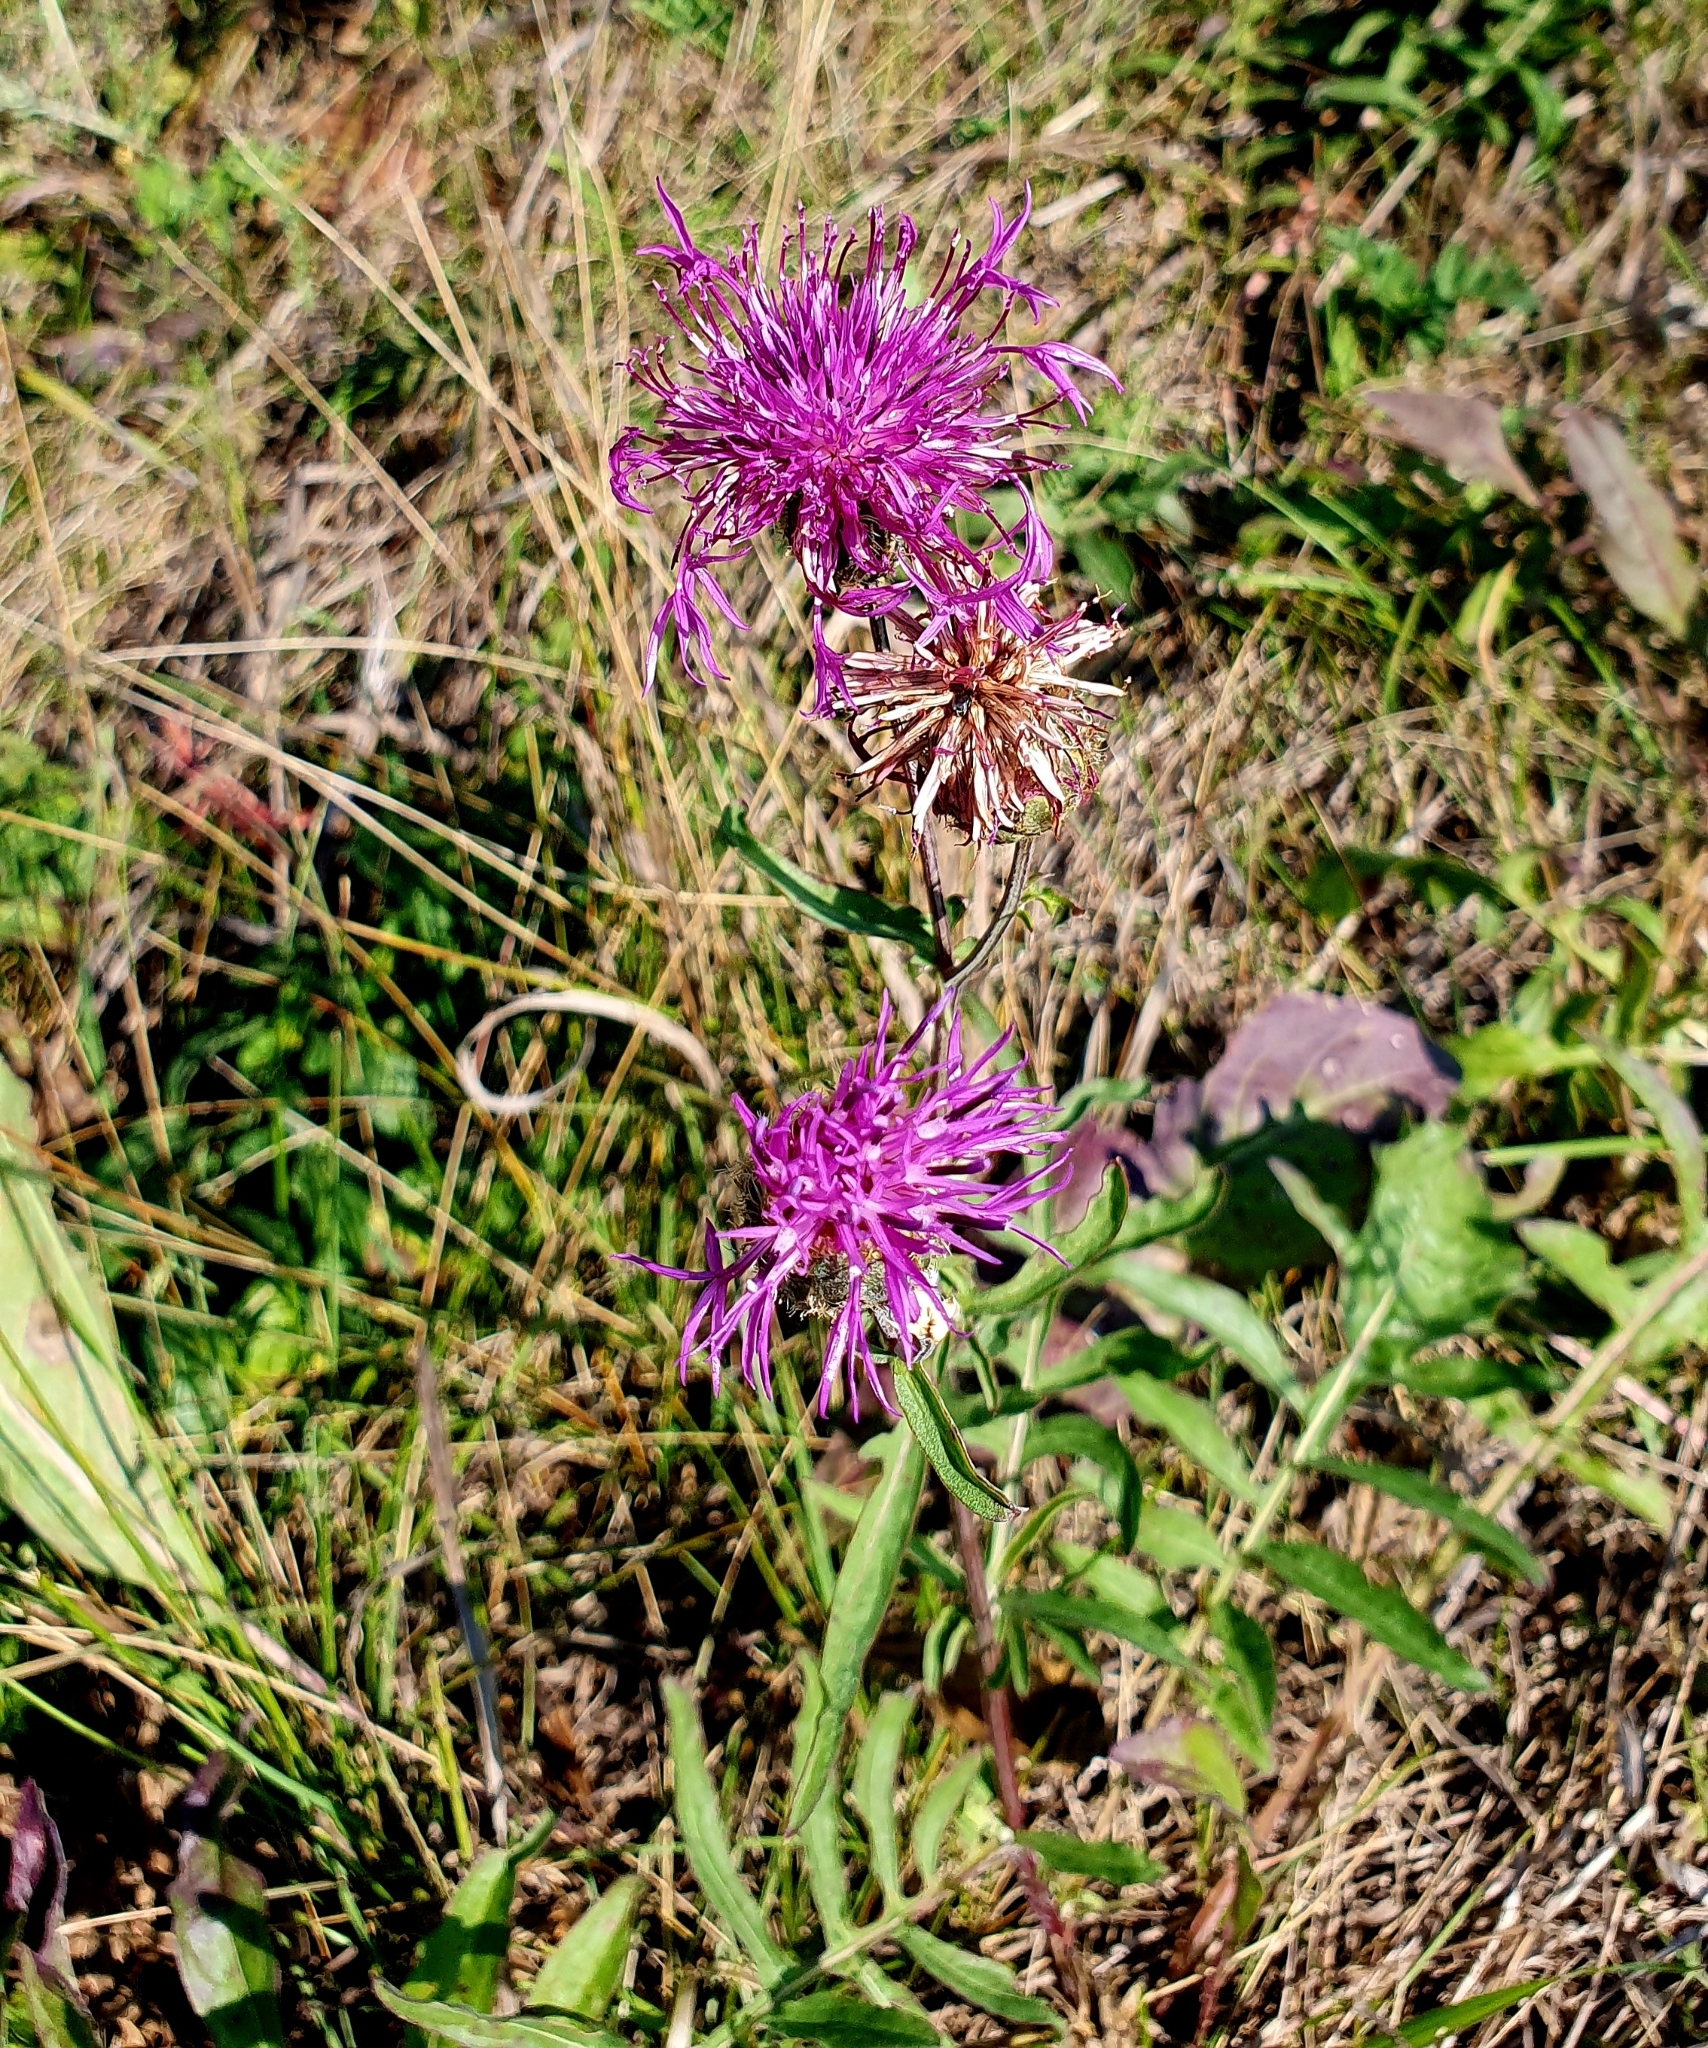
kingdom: Plantae
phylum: Tracheophyta
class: Magnoliopsida
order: Asterales
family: Asteraceae
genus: Centaurea
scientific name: Centaurea scabiosa
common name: Greater knapweed
